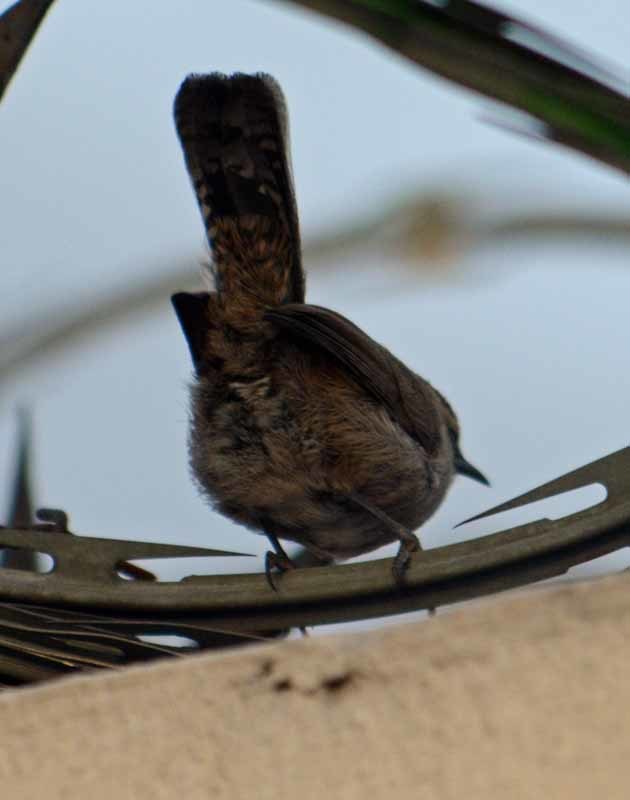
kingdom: Animalia
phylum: Chordata
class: Aves
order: Passeriformes
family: Troglodytidae
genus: Thryomanes
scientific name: Thryomanes bewickii
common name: Bewick's wren
